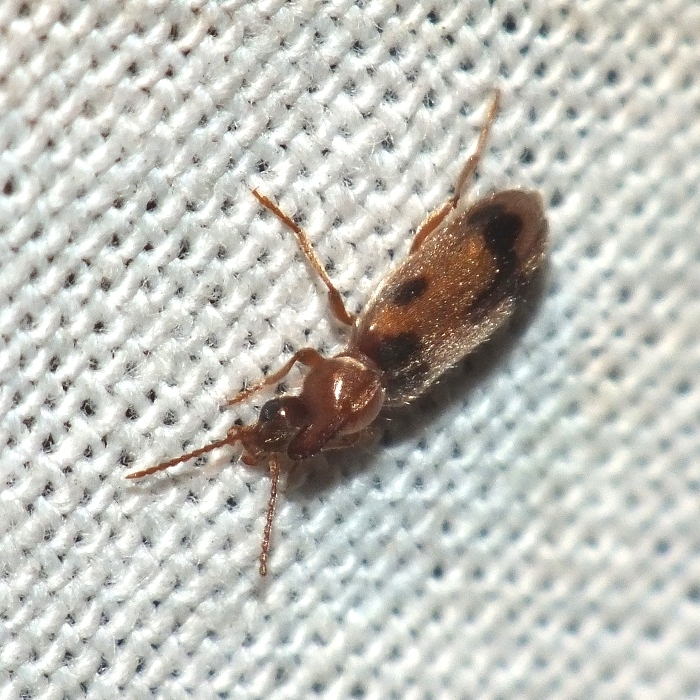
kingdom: Animalia
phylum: Arthropoda
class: Insecta
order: Coleoptera
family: Anthicidae
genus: Notoxus
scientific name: Notoxus monoceros
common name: Monoceros beetle
